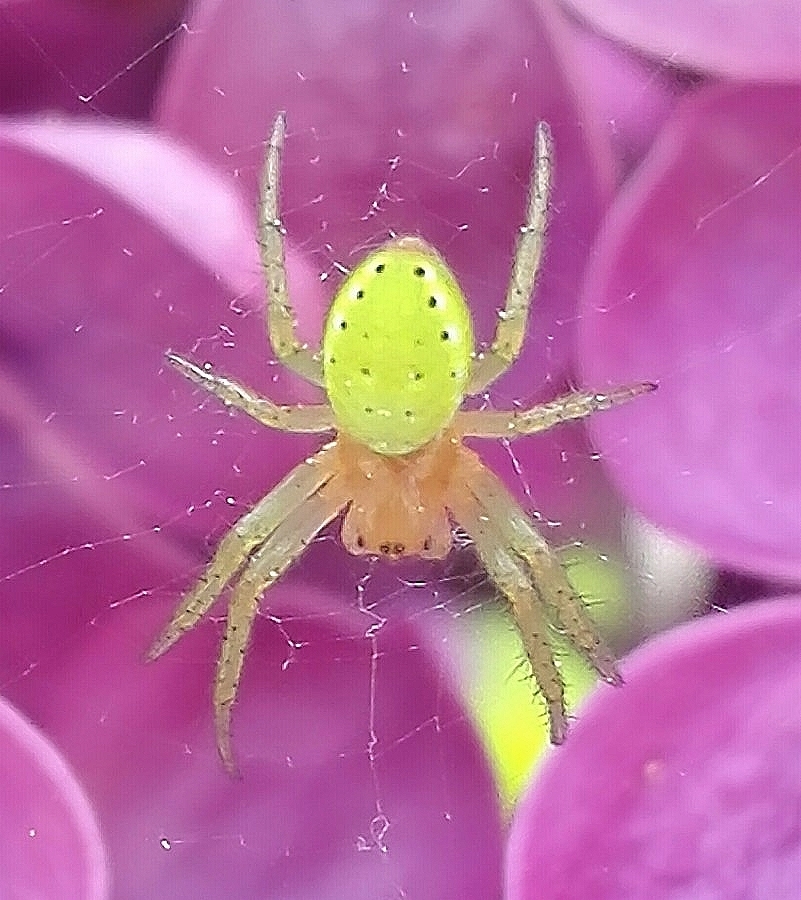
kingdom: Animalia
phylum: Arthropoda
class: Arachnida
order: Araneae
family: Araneidae
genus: Araniella
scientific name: Araniella cucurbitina
